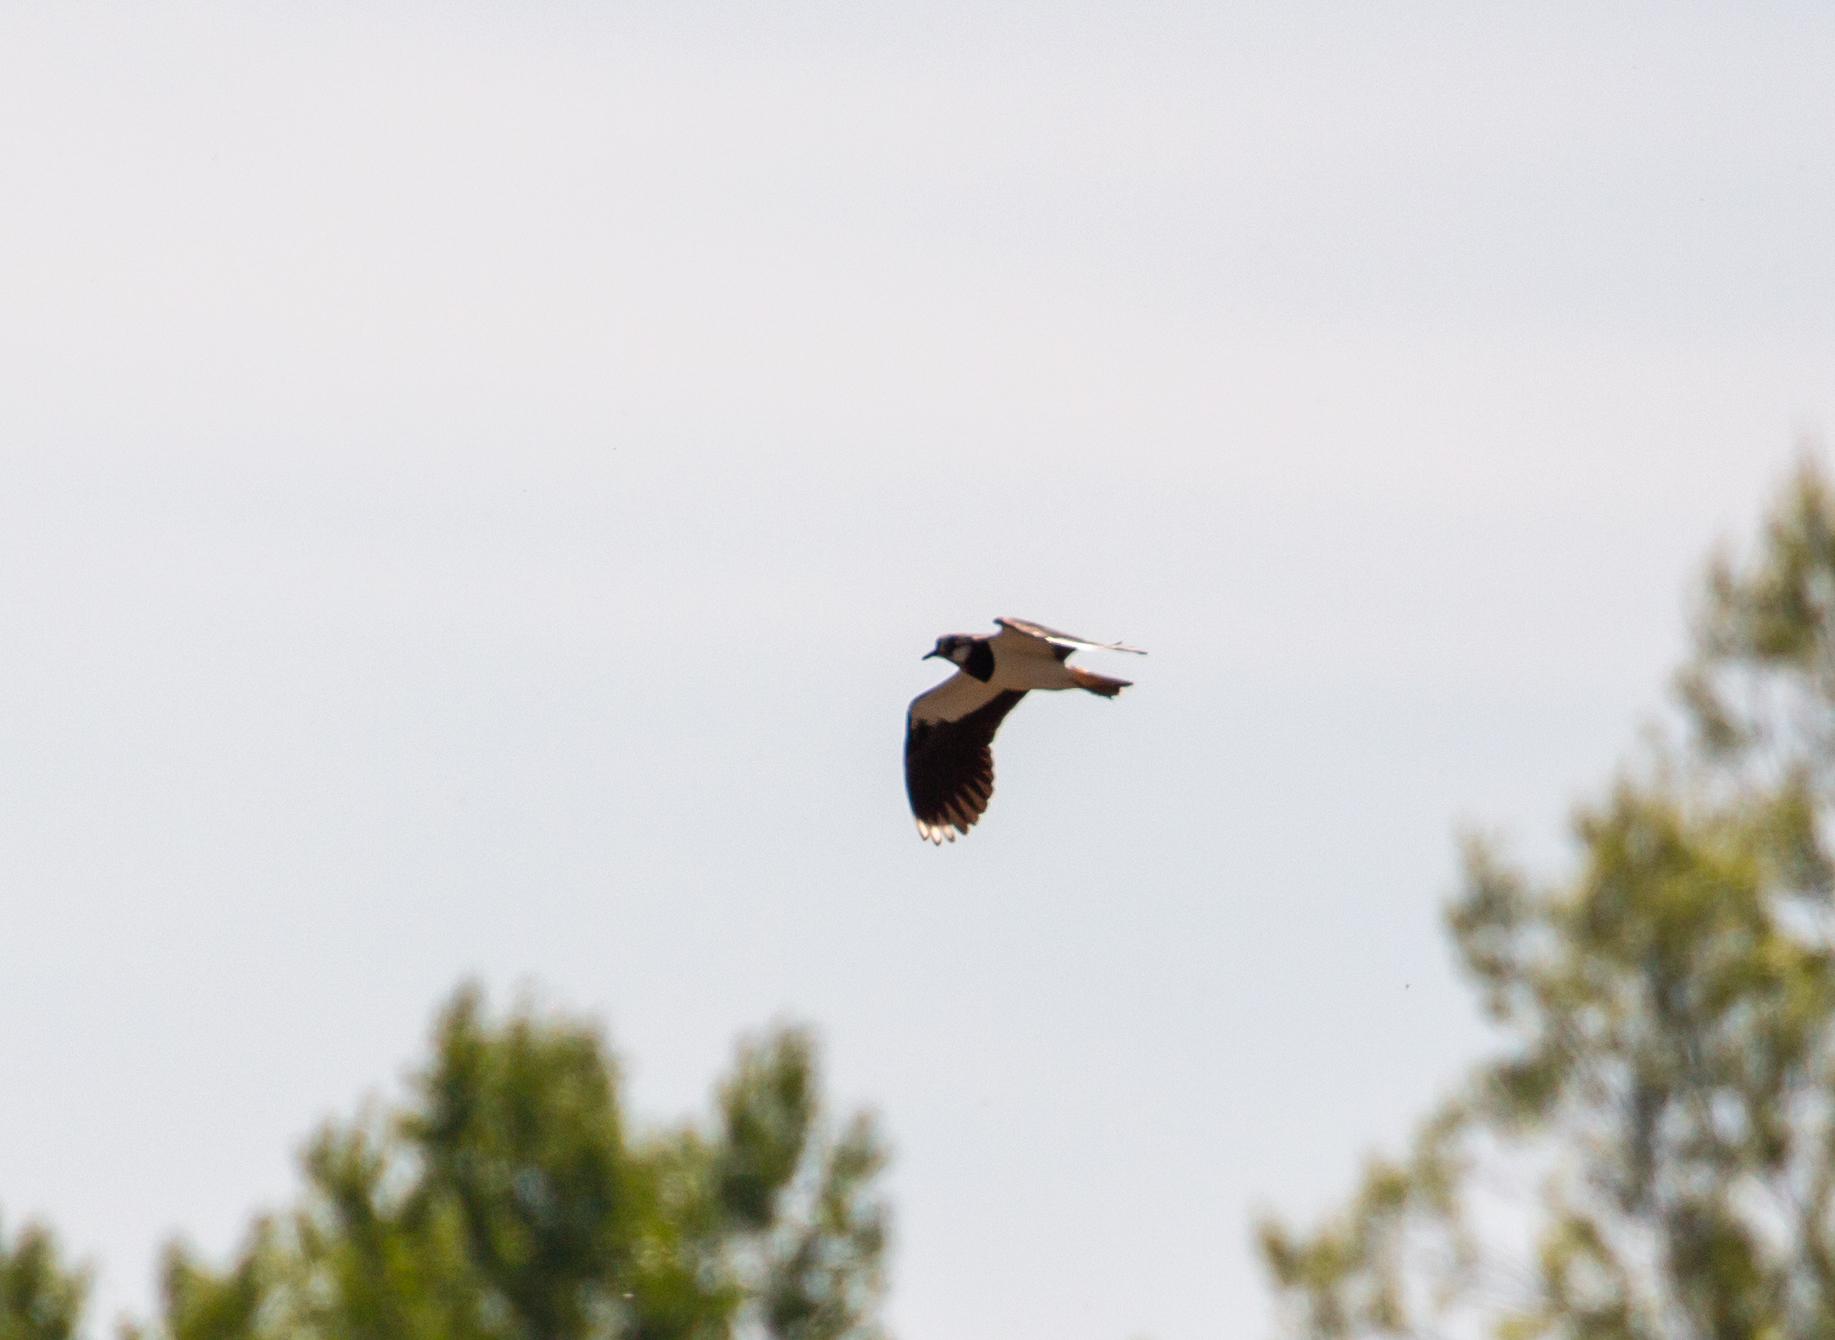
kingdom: Animalia
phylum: Chordata
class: Aves
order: Charadriiformes
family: Charadriidae
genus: Vanellus
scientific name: Vanellus vanellus
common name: Northern lapwing
